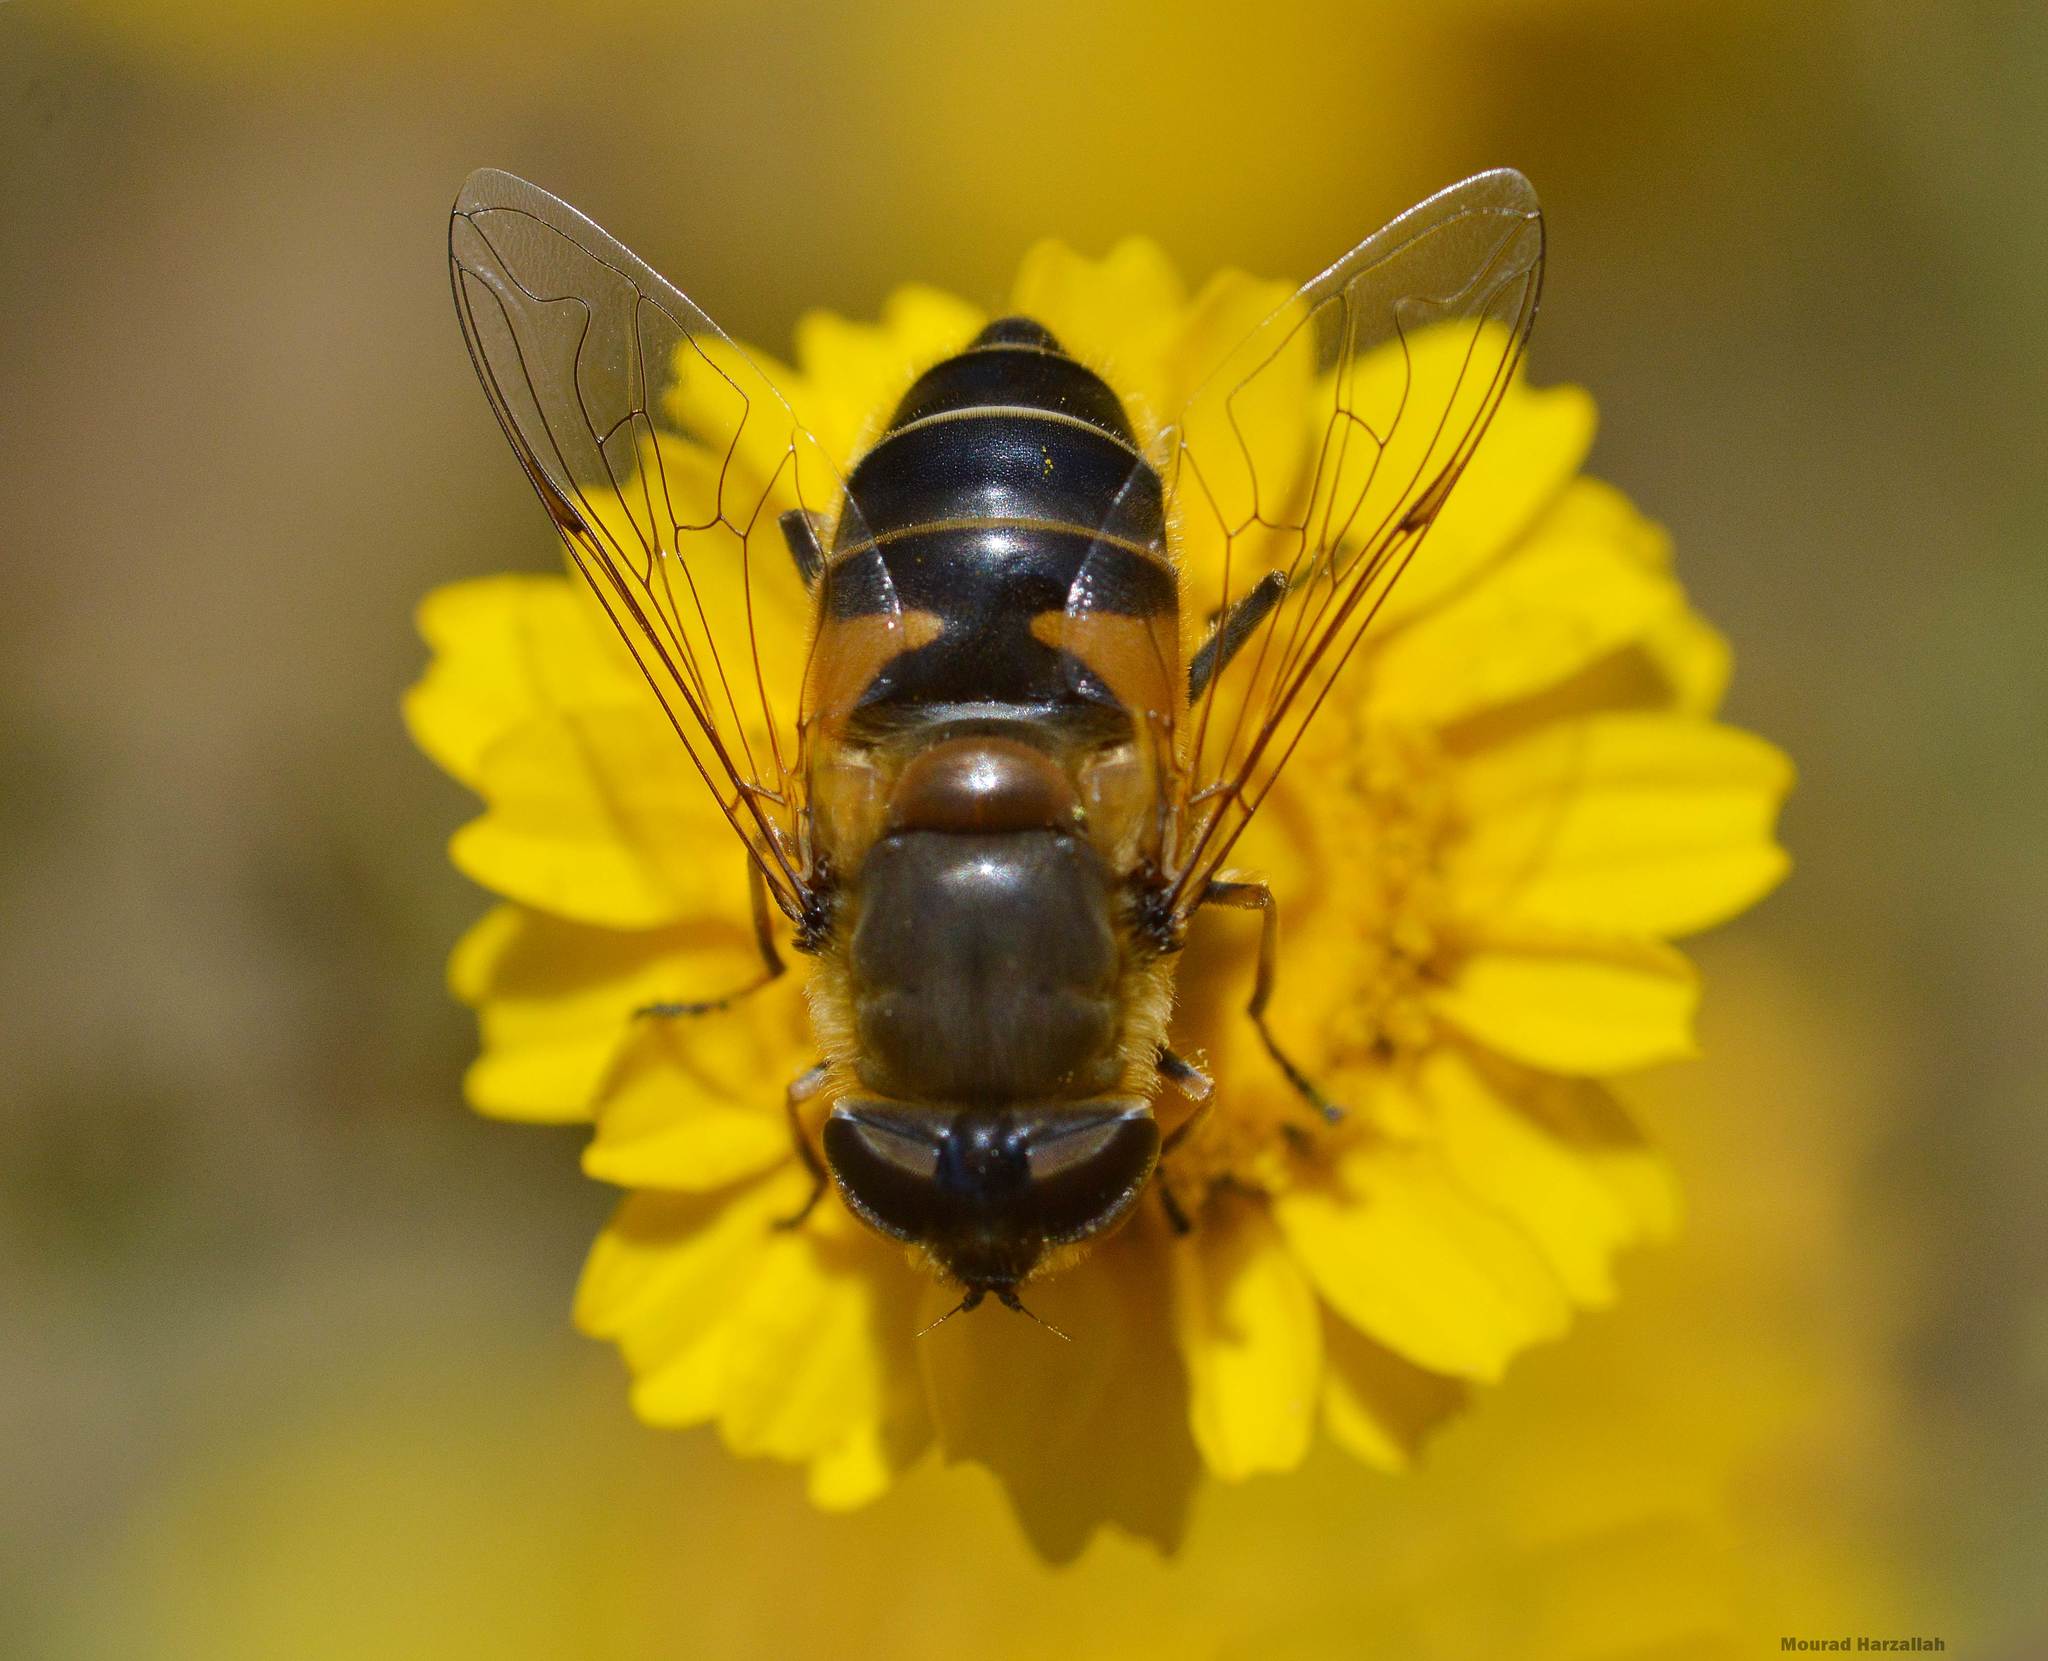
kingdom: Animalia
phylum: Arthropoda
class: Insecta
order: Diptera
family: Syrphidae
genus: Eristalis
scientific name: Eristalis pertinax
